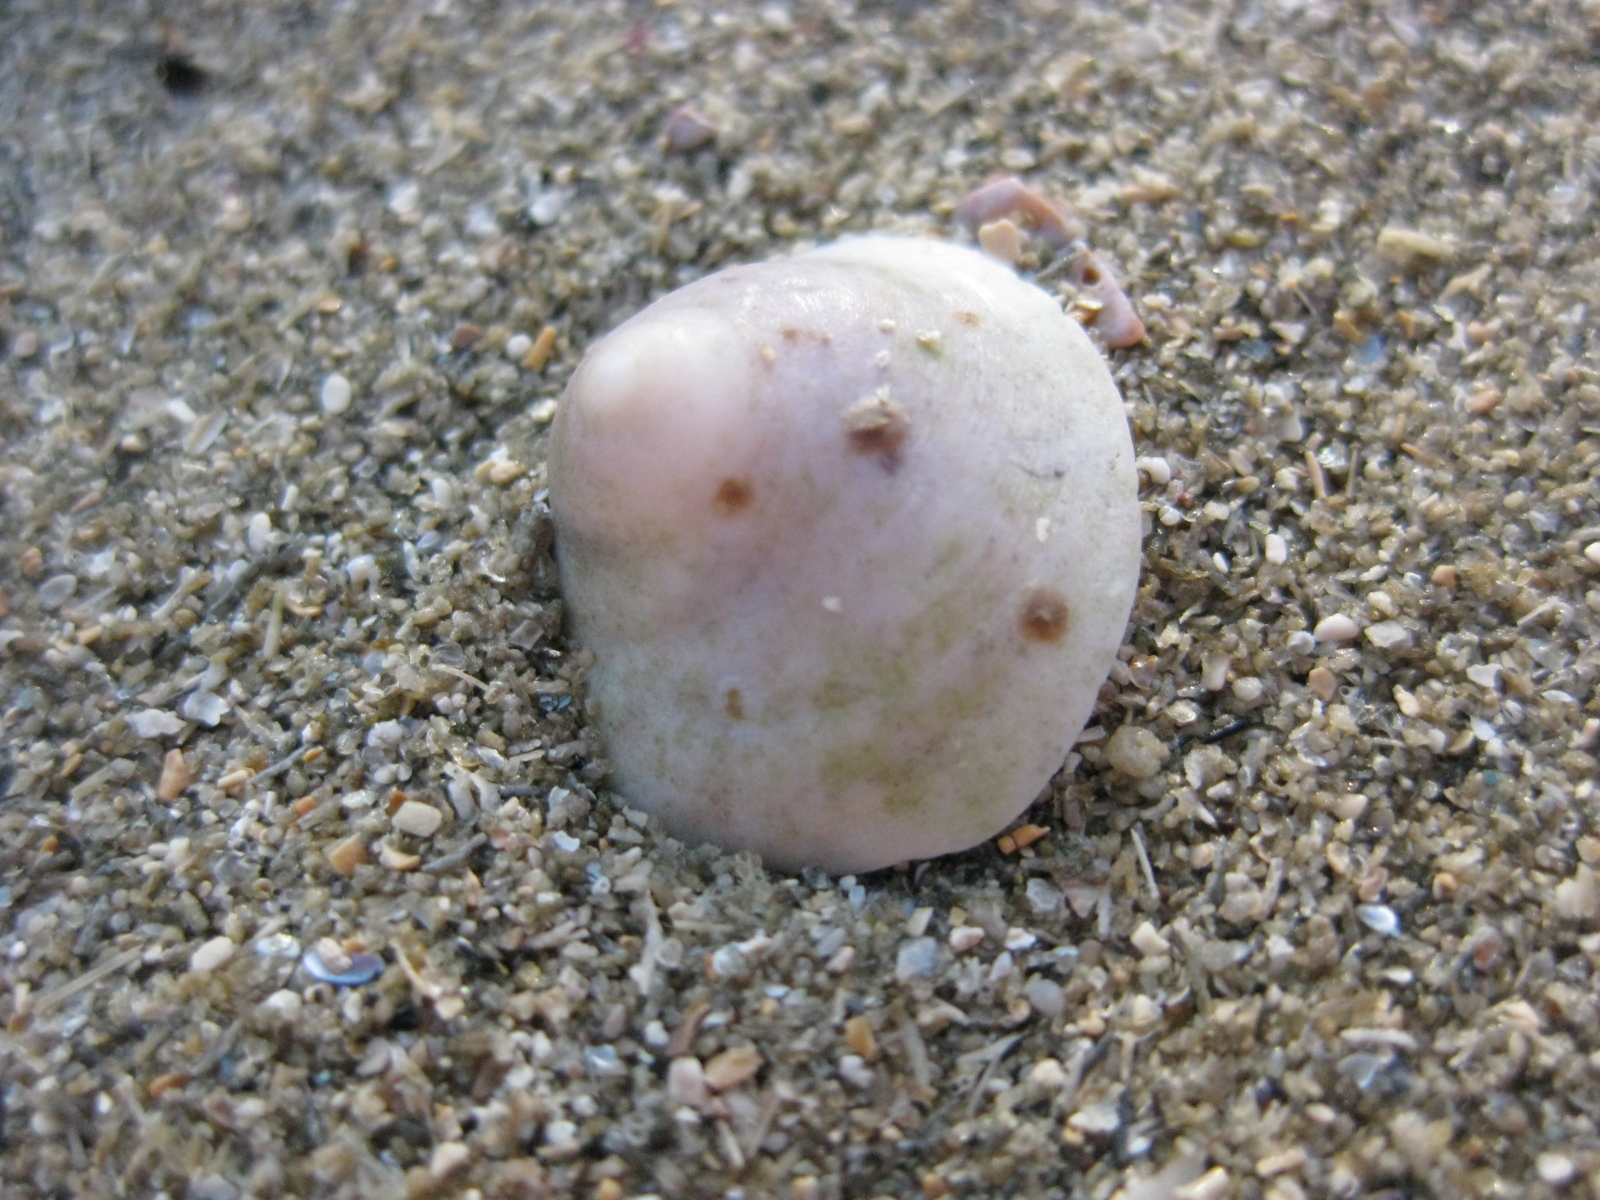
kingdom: Animalia
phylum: Mollusca
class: Gastropoda
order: Littorinimorpha
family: Calyptraeidae
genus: Sigapatella
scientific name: Sigapatella novaezelandiae
